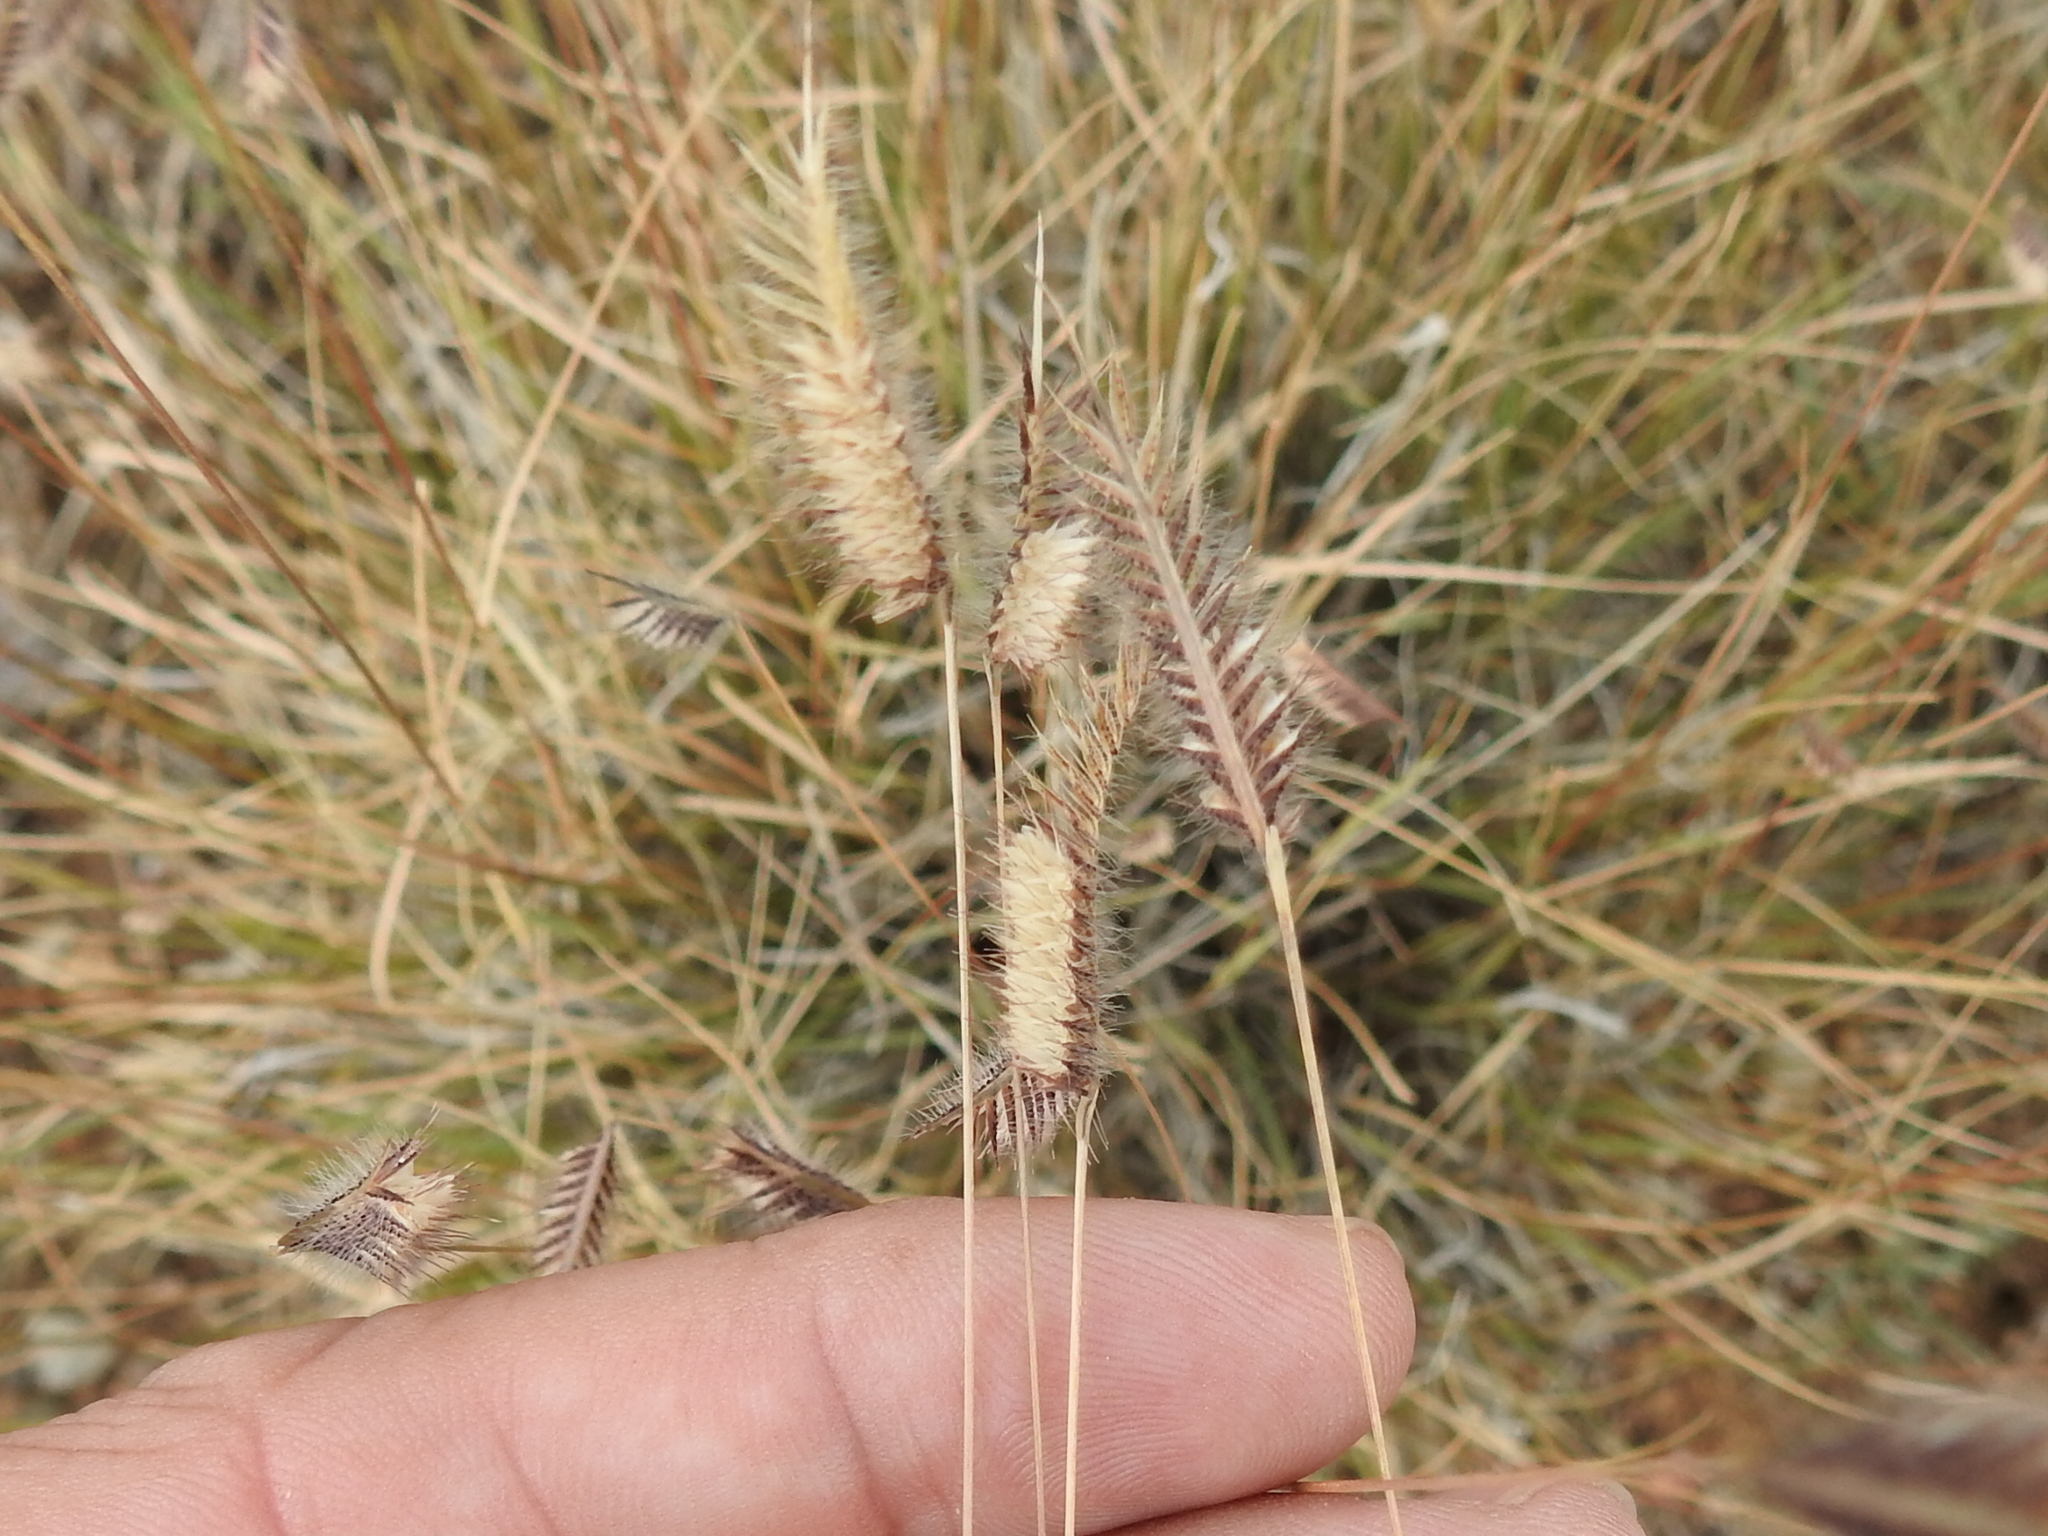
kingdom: Plantae
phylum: Tracheophyta
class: Liliopsida
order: Poales
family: Poaceae
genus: Bouteloua
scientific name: Bouteloua hirsuta
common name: Hairy grama
